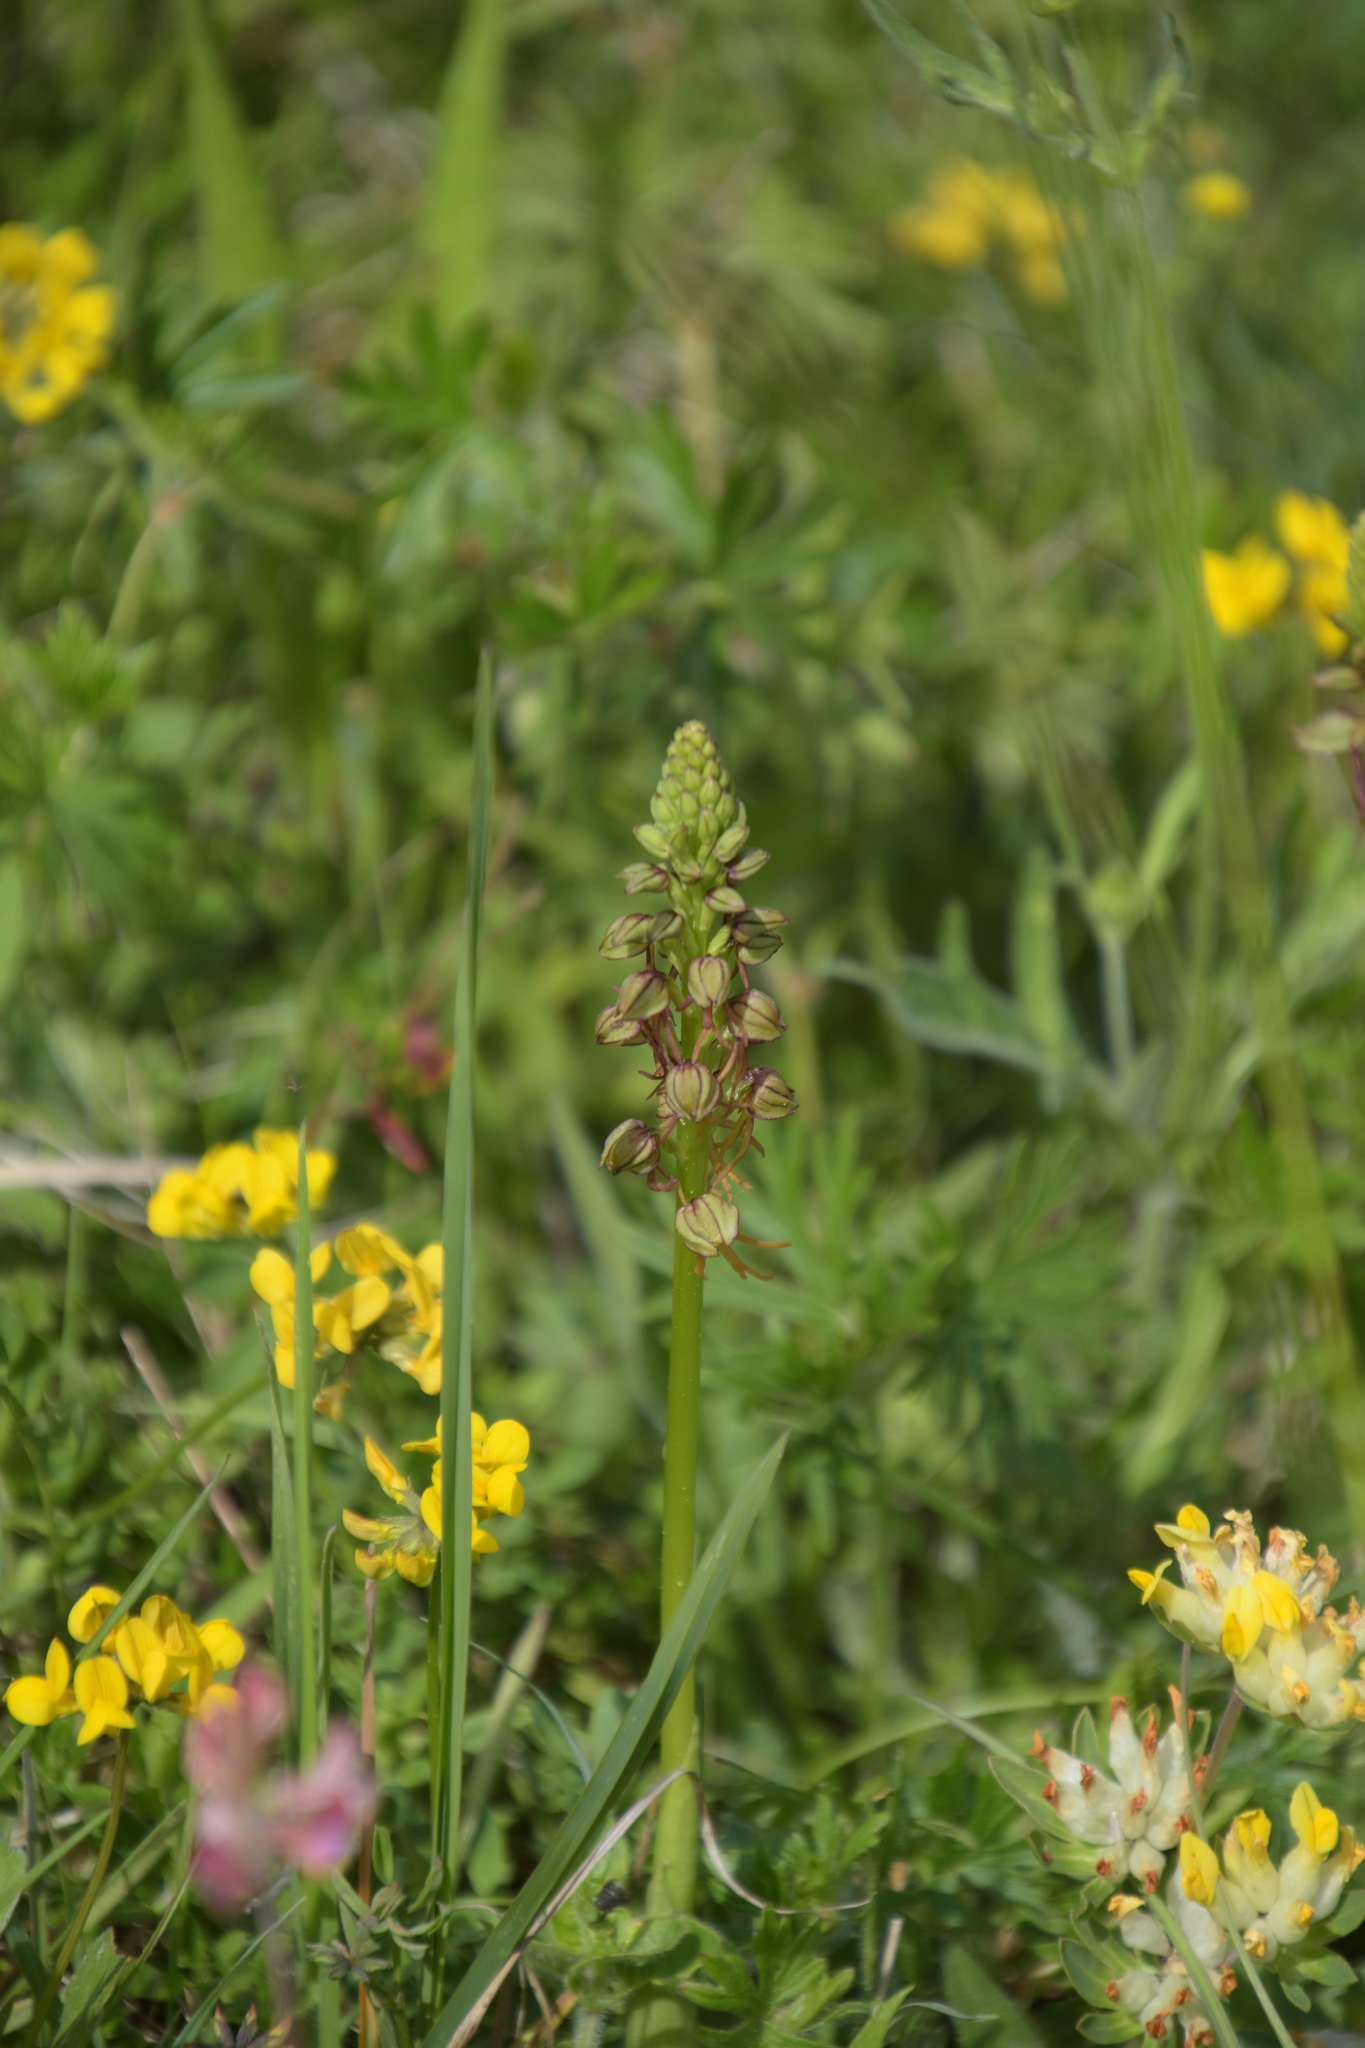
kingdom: Plantae
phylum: Tracheophyta
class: Liliopsida
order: Asparagales
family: Orchidaceae
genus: Orchis
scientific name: Orchis anthropophora
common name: Man orchid
